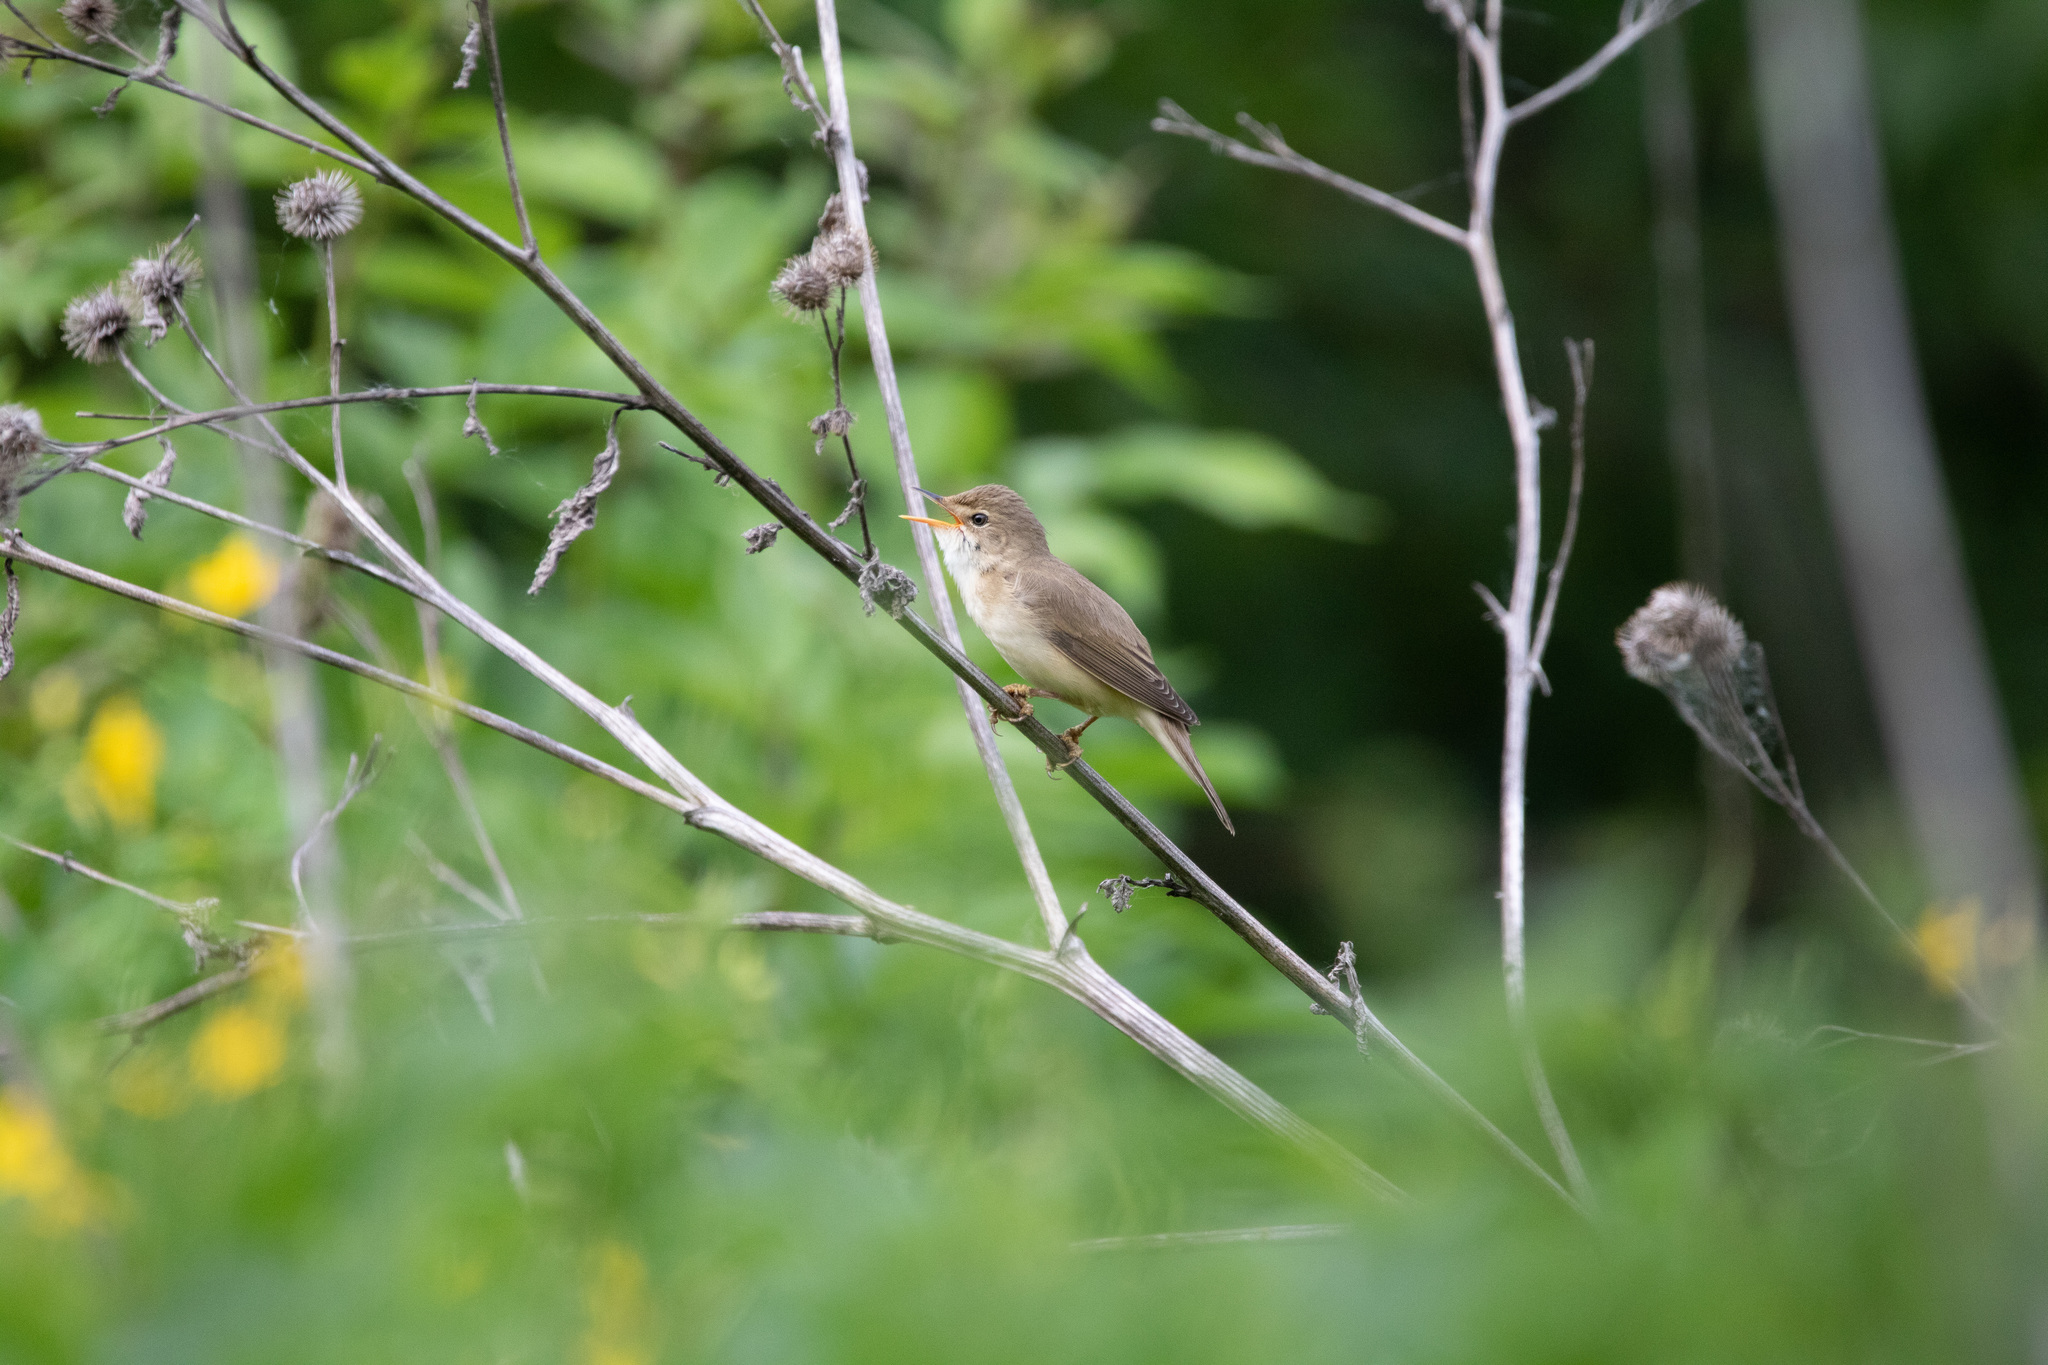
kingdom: Animalia
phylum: Chordata
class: Aves
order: Passeriformes
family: Acrocephalidae
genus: Acrocephalus
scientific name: Acrocephalus palustris
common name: Marsh warbler
